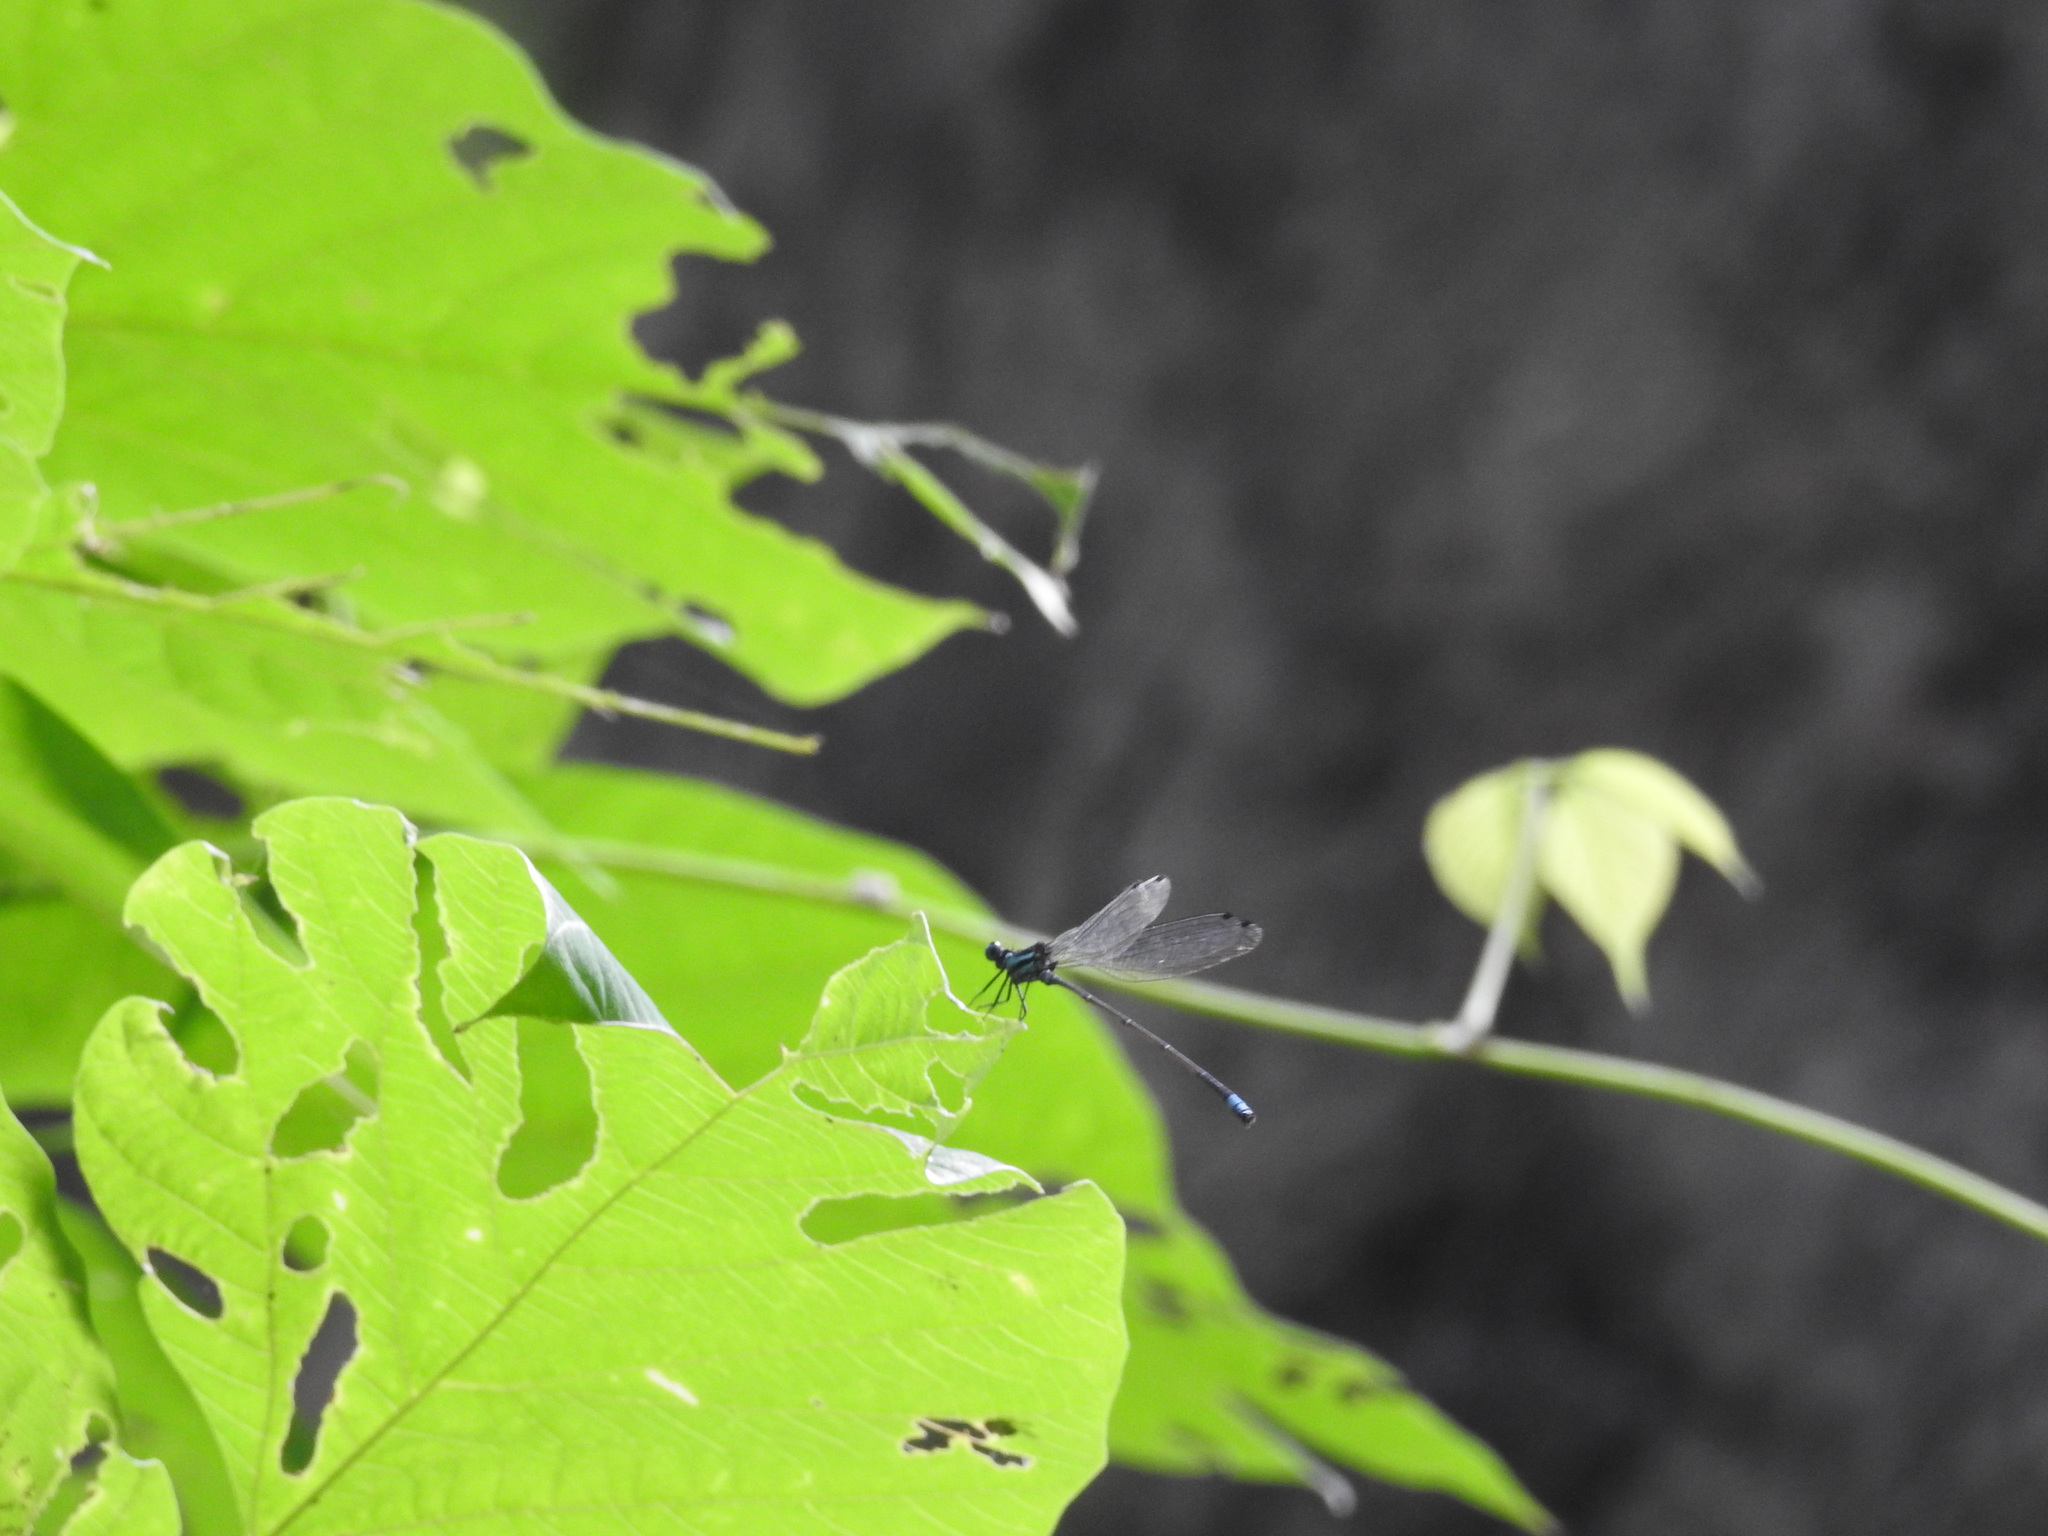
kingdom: Animalia
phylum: Arthropoda
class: Insecta
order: Odonata
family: Platycnemididae
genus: Caconeura
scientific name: Caconeura ramburi
